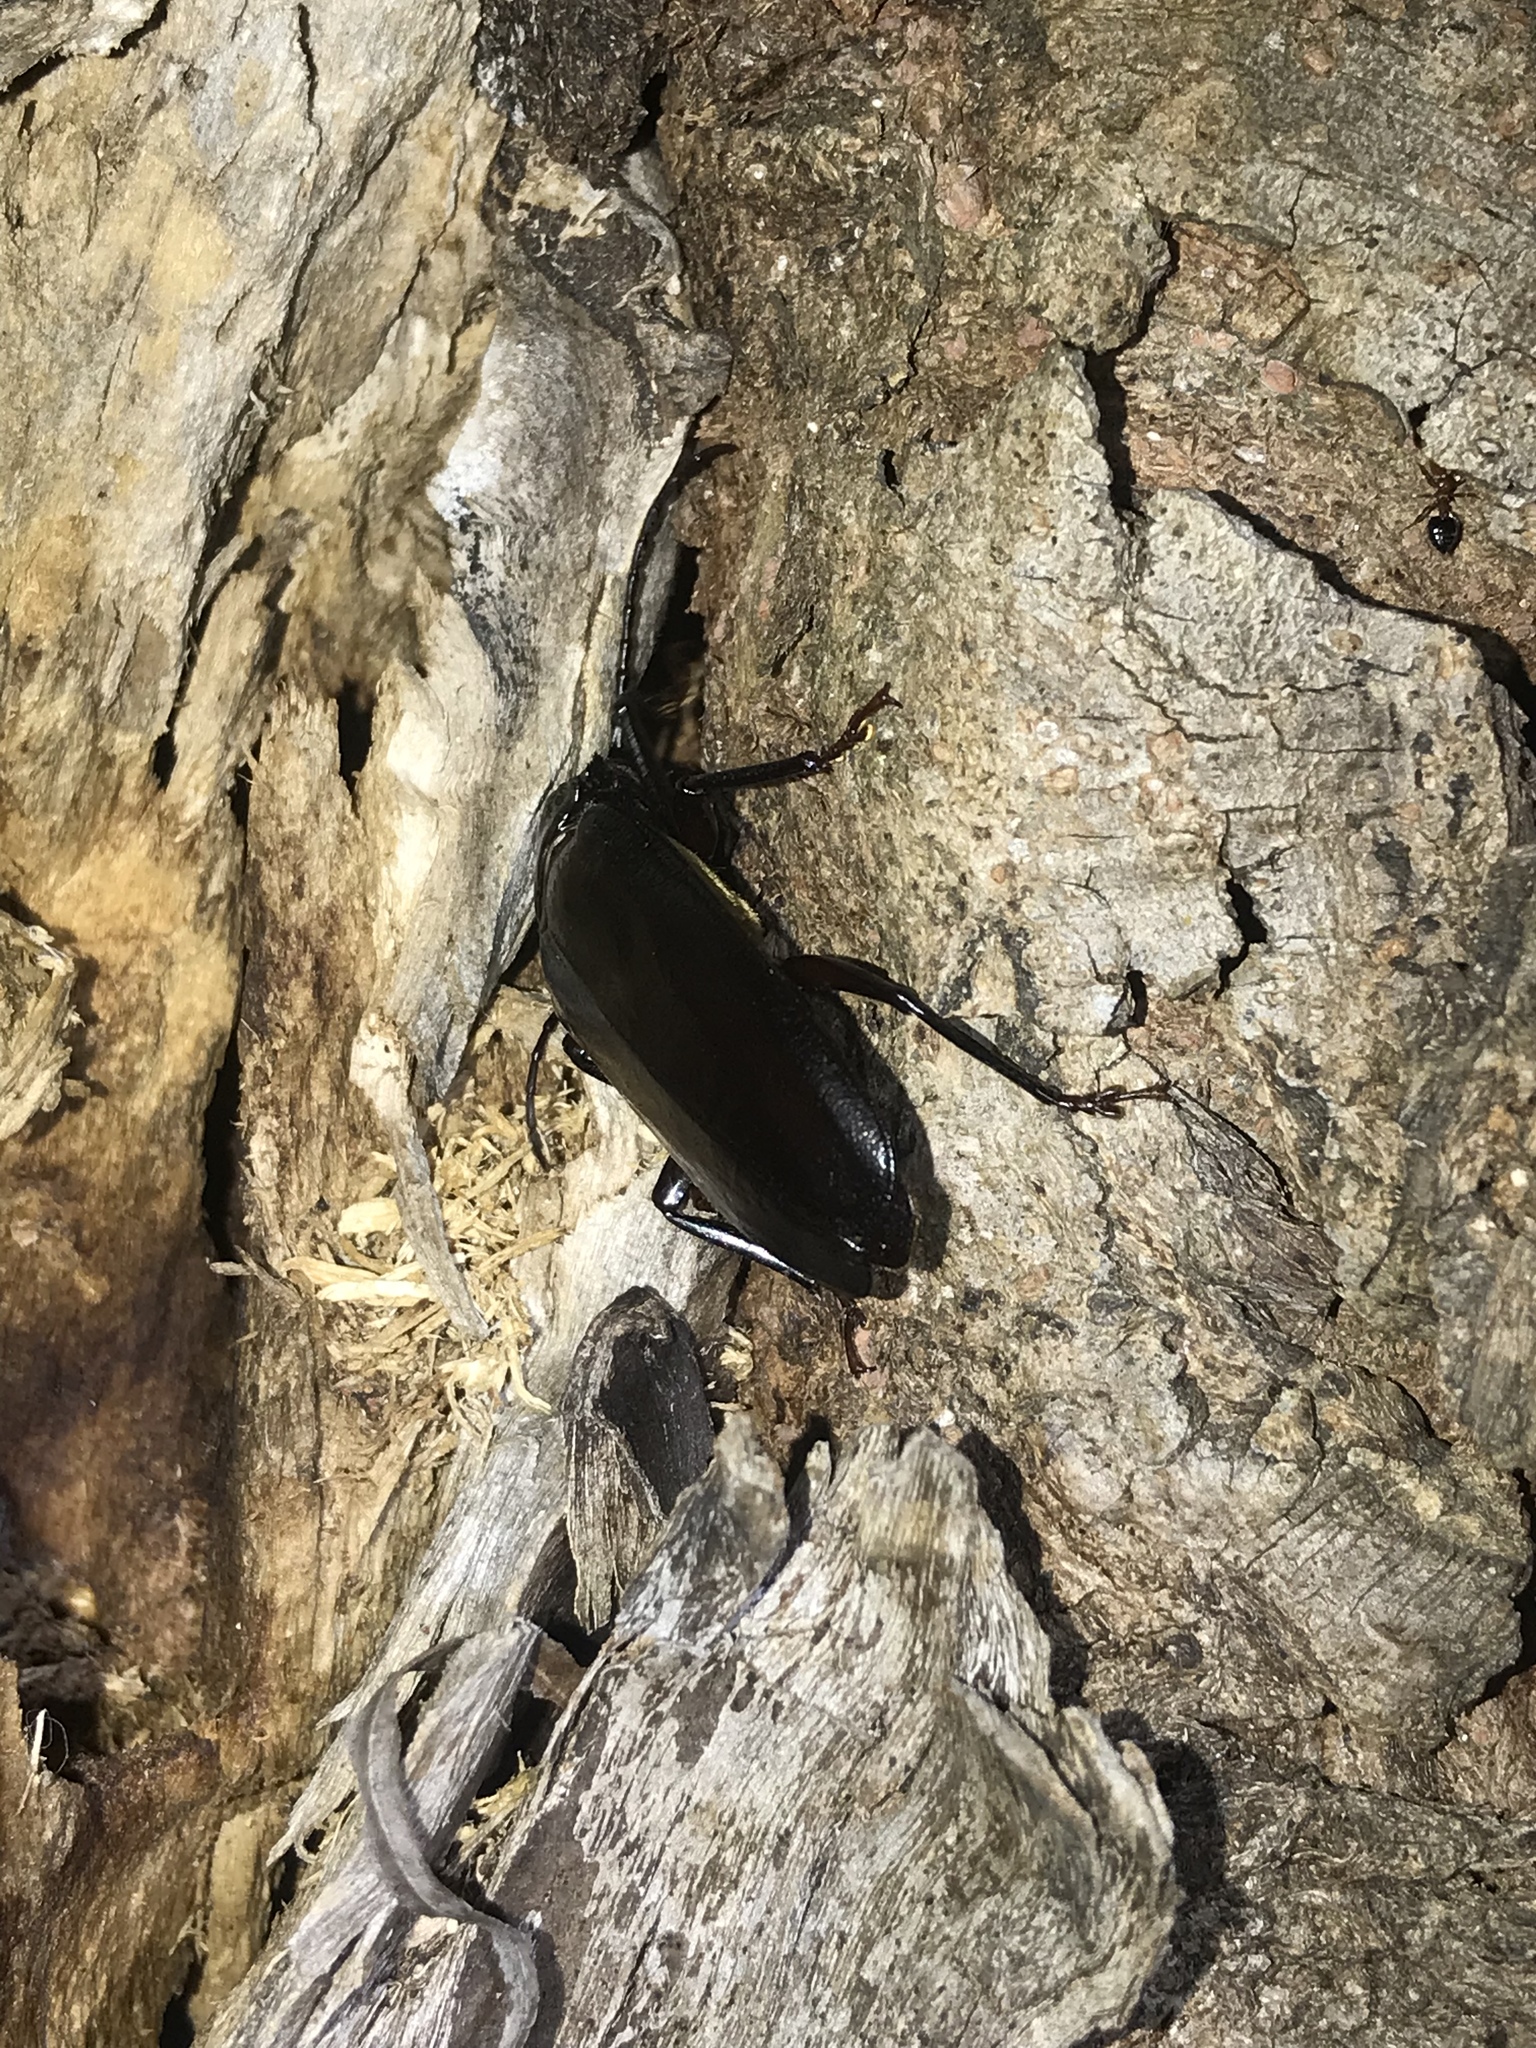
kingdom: Animalia
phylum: Arthropoda
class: Insecta
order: Coleoptera
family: Cerambycidae
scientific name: Cerambycidae
